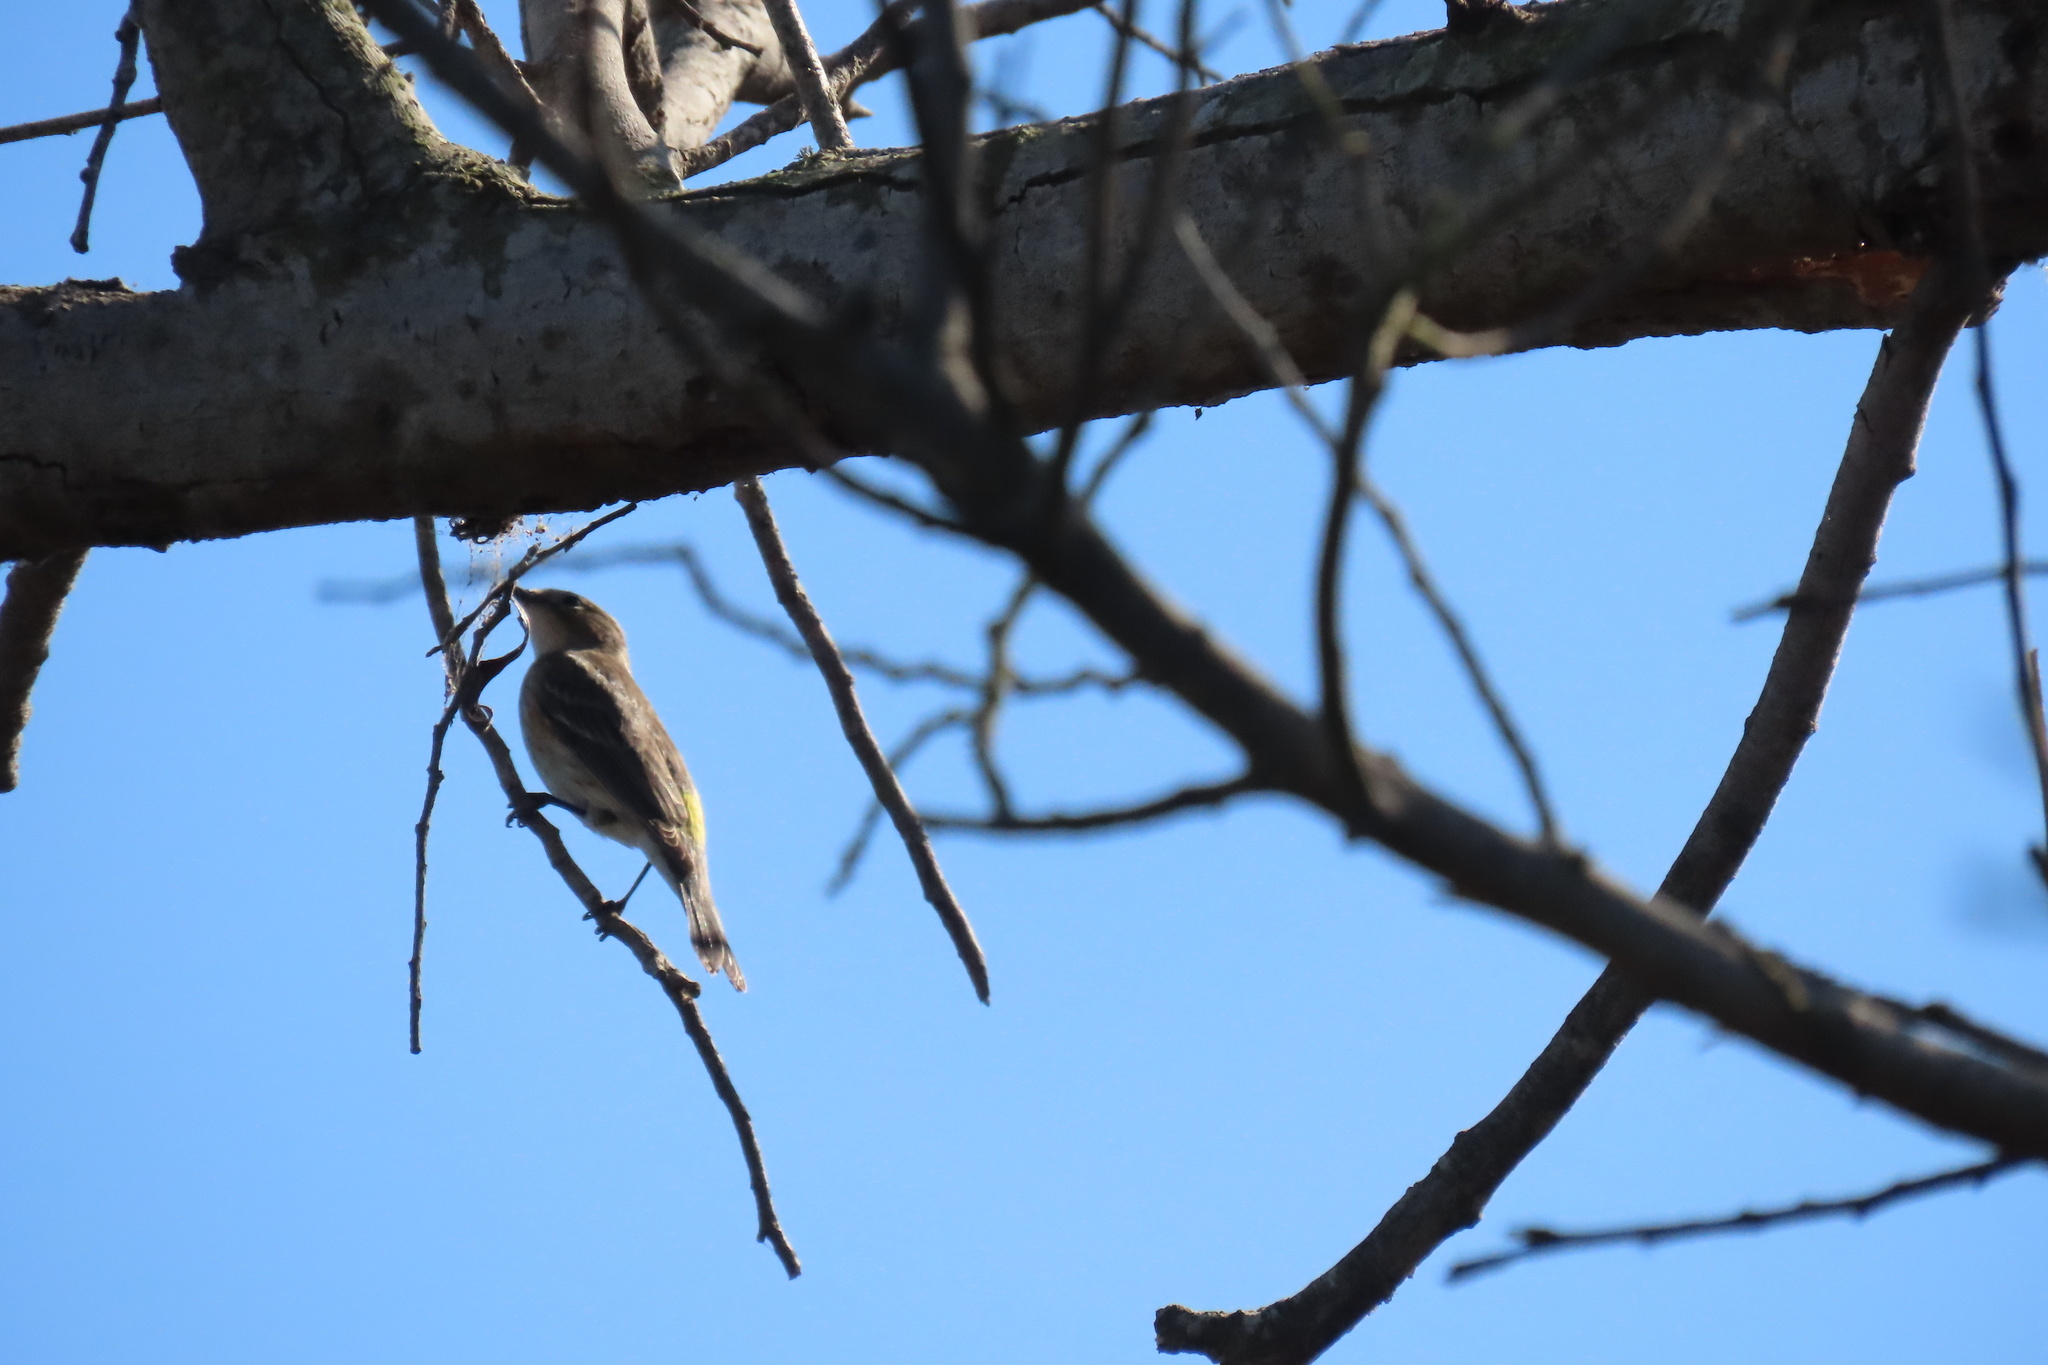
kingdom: Animalia
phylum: Chordata
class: Aves
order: Passeriformes
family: Parulidae
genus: Setophaga
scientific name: Setophaga coronata
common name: Myrtle warbler
